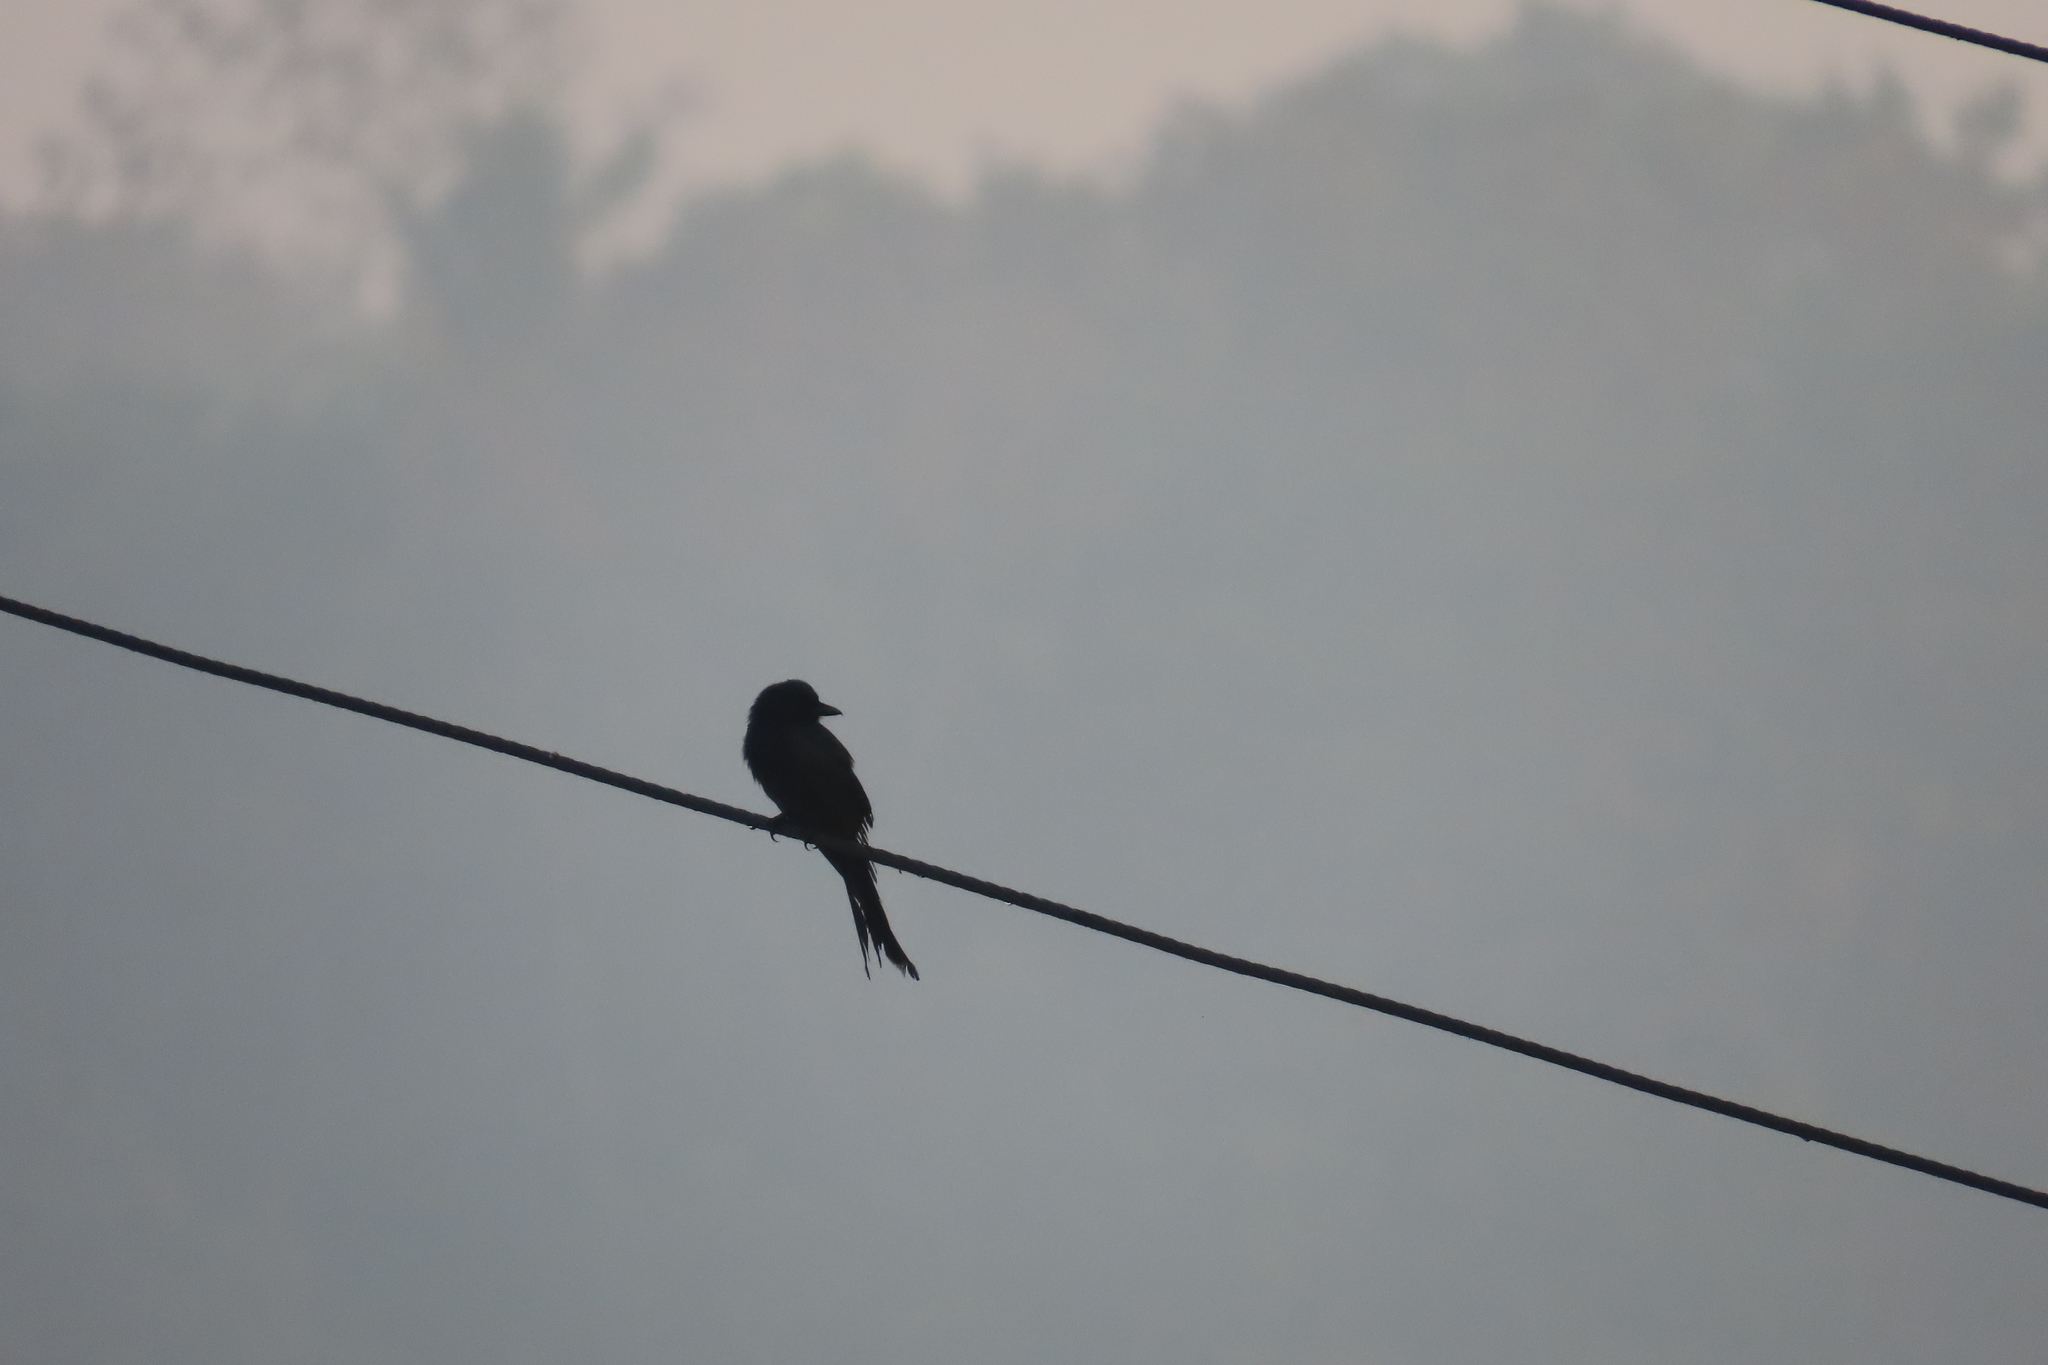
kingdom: Animalia
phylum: Chordata
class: Aves
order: Passeriformes
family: Dicruridae
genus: Dicrurus
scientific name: Dicrurus macrocercus
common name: Black drongo
